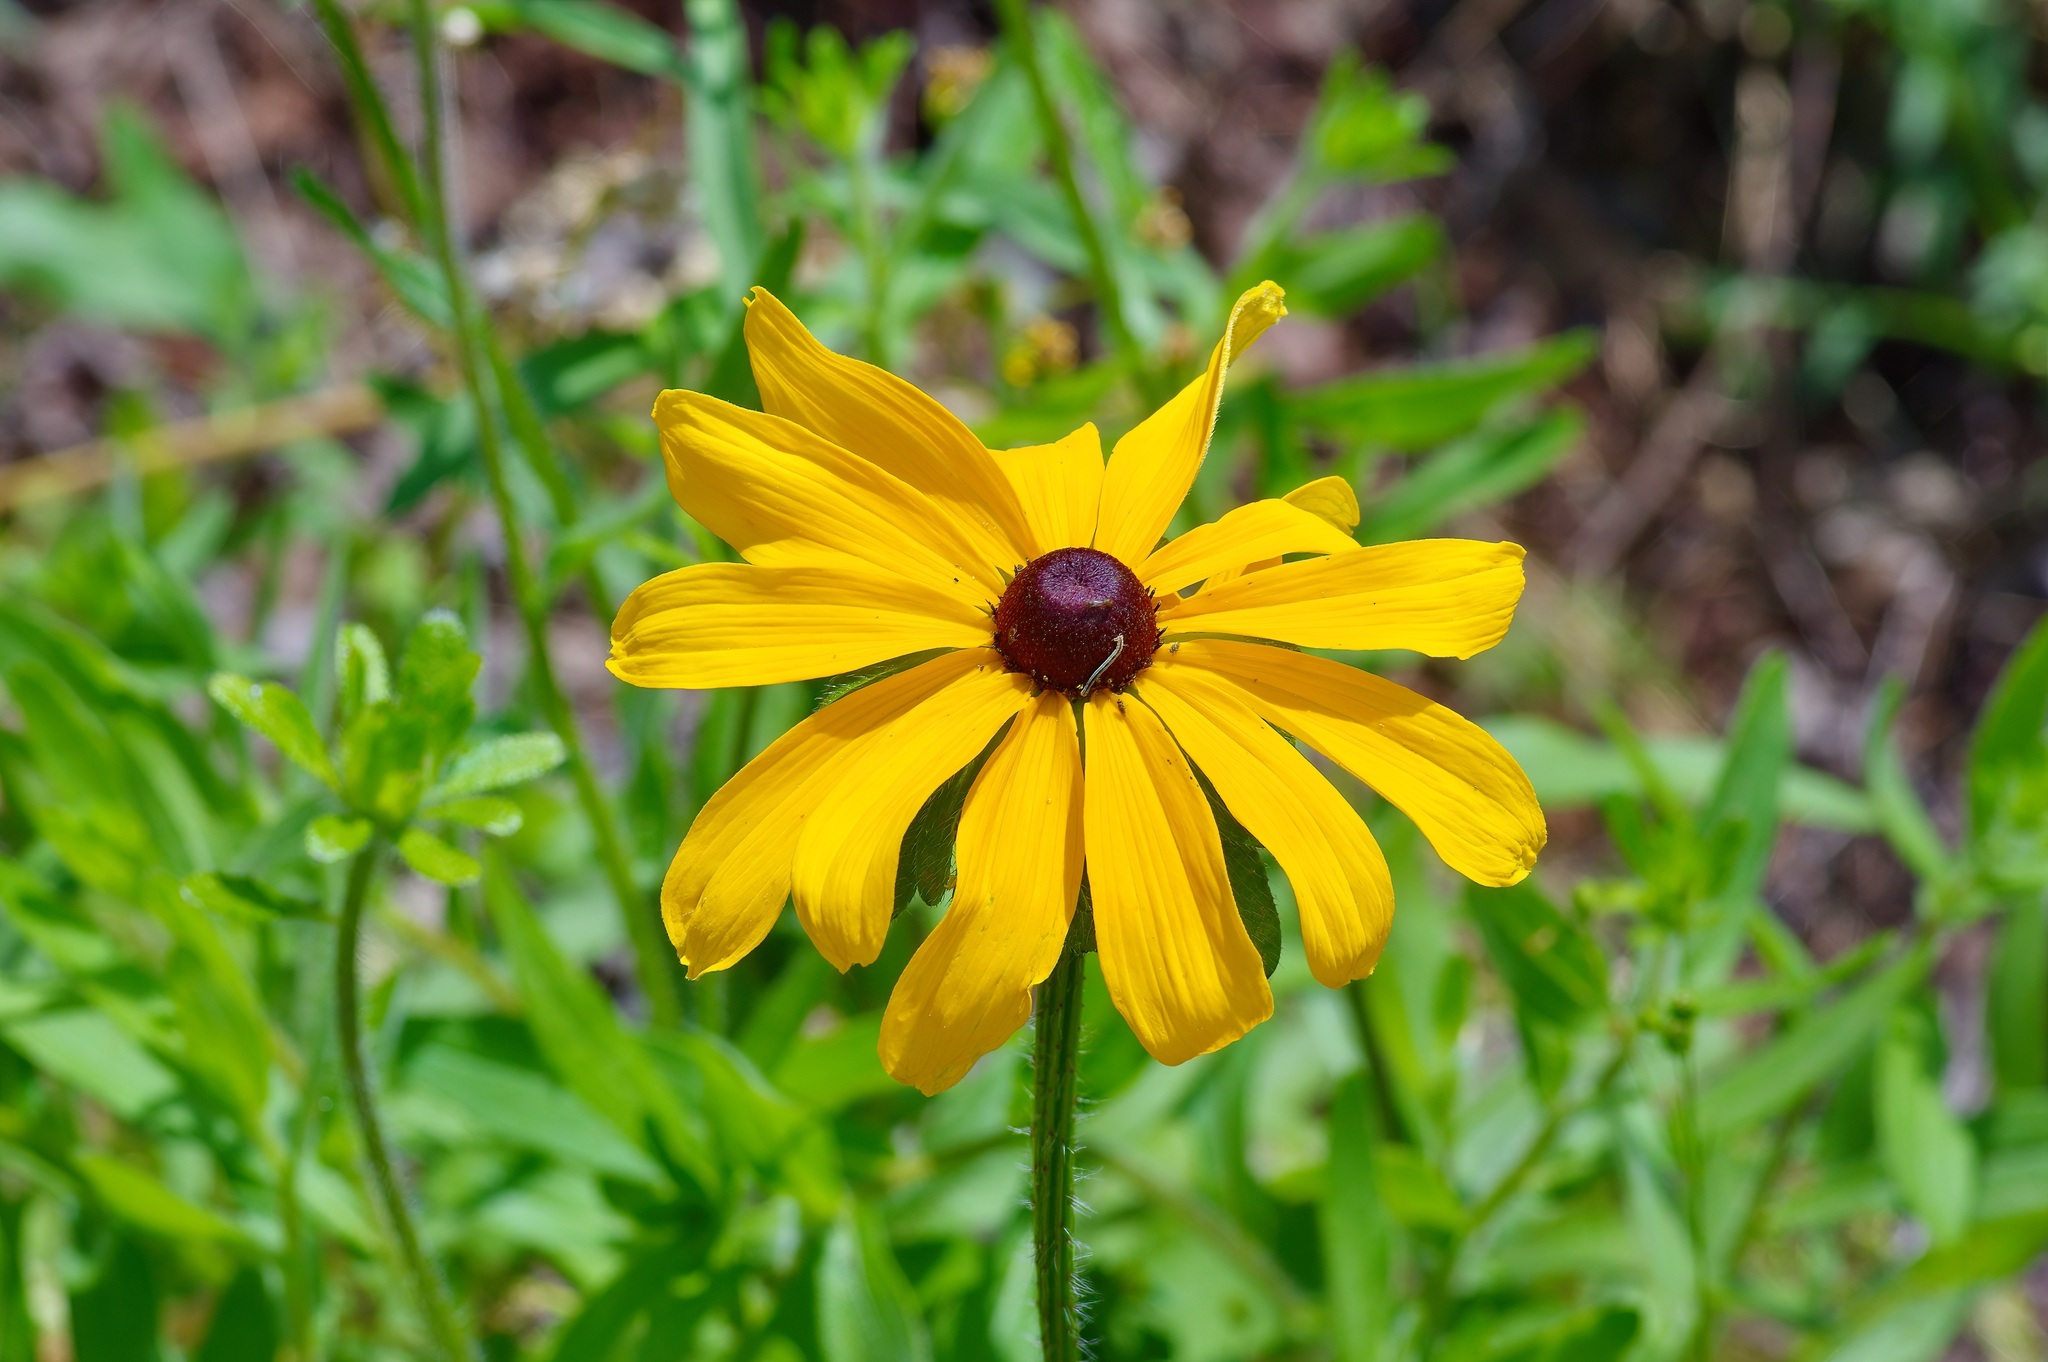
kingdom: Plantae
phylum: Tracheophyta
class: Magnoliopsida
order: Asterales
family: Asteraceae
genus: Rudbeckia
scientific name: Rudbeckia hirta
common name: Black-eyed-susan
